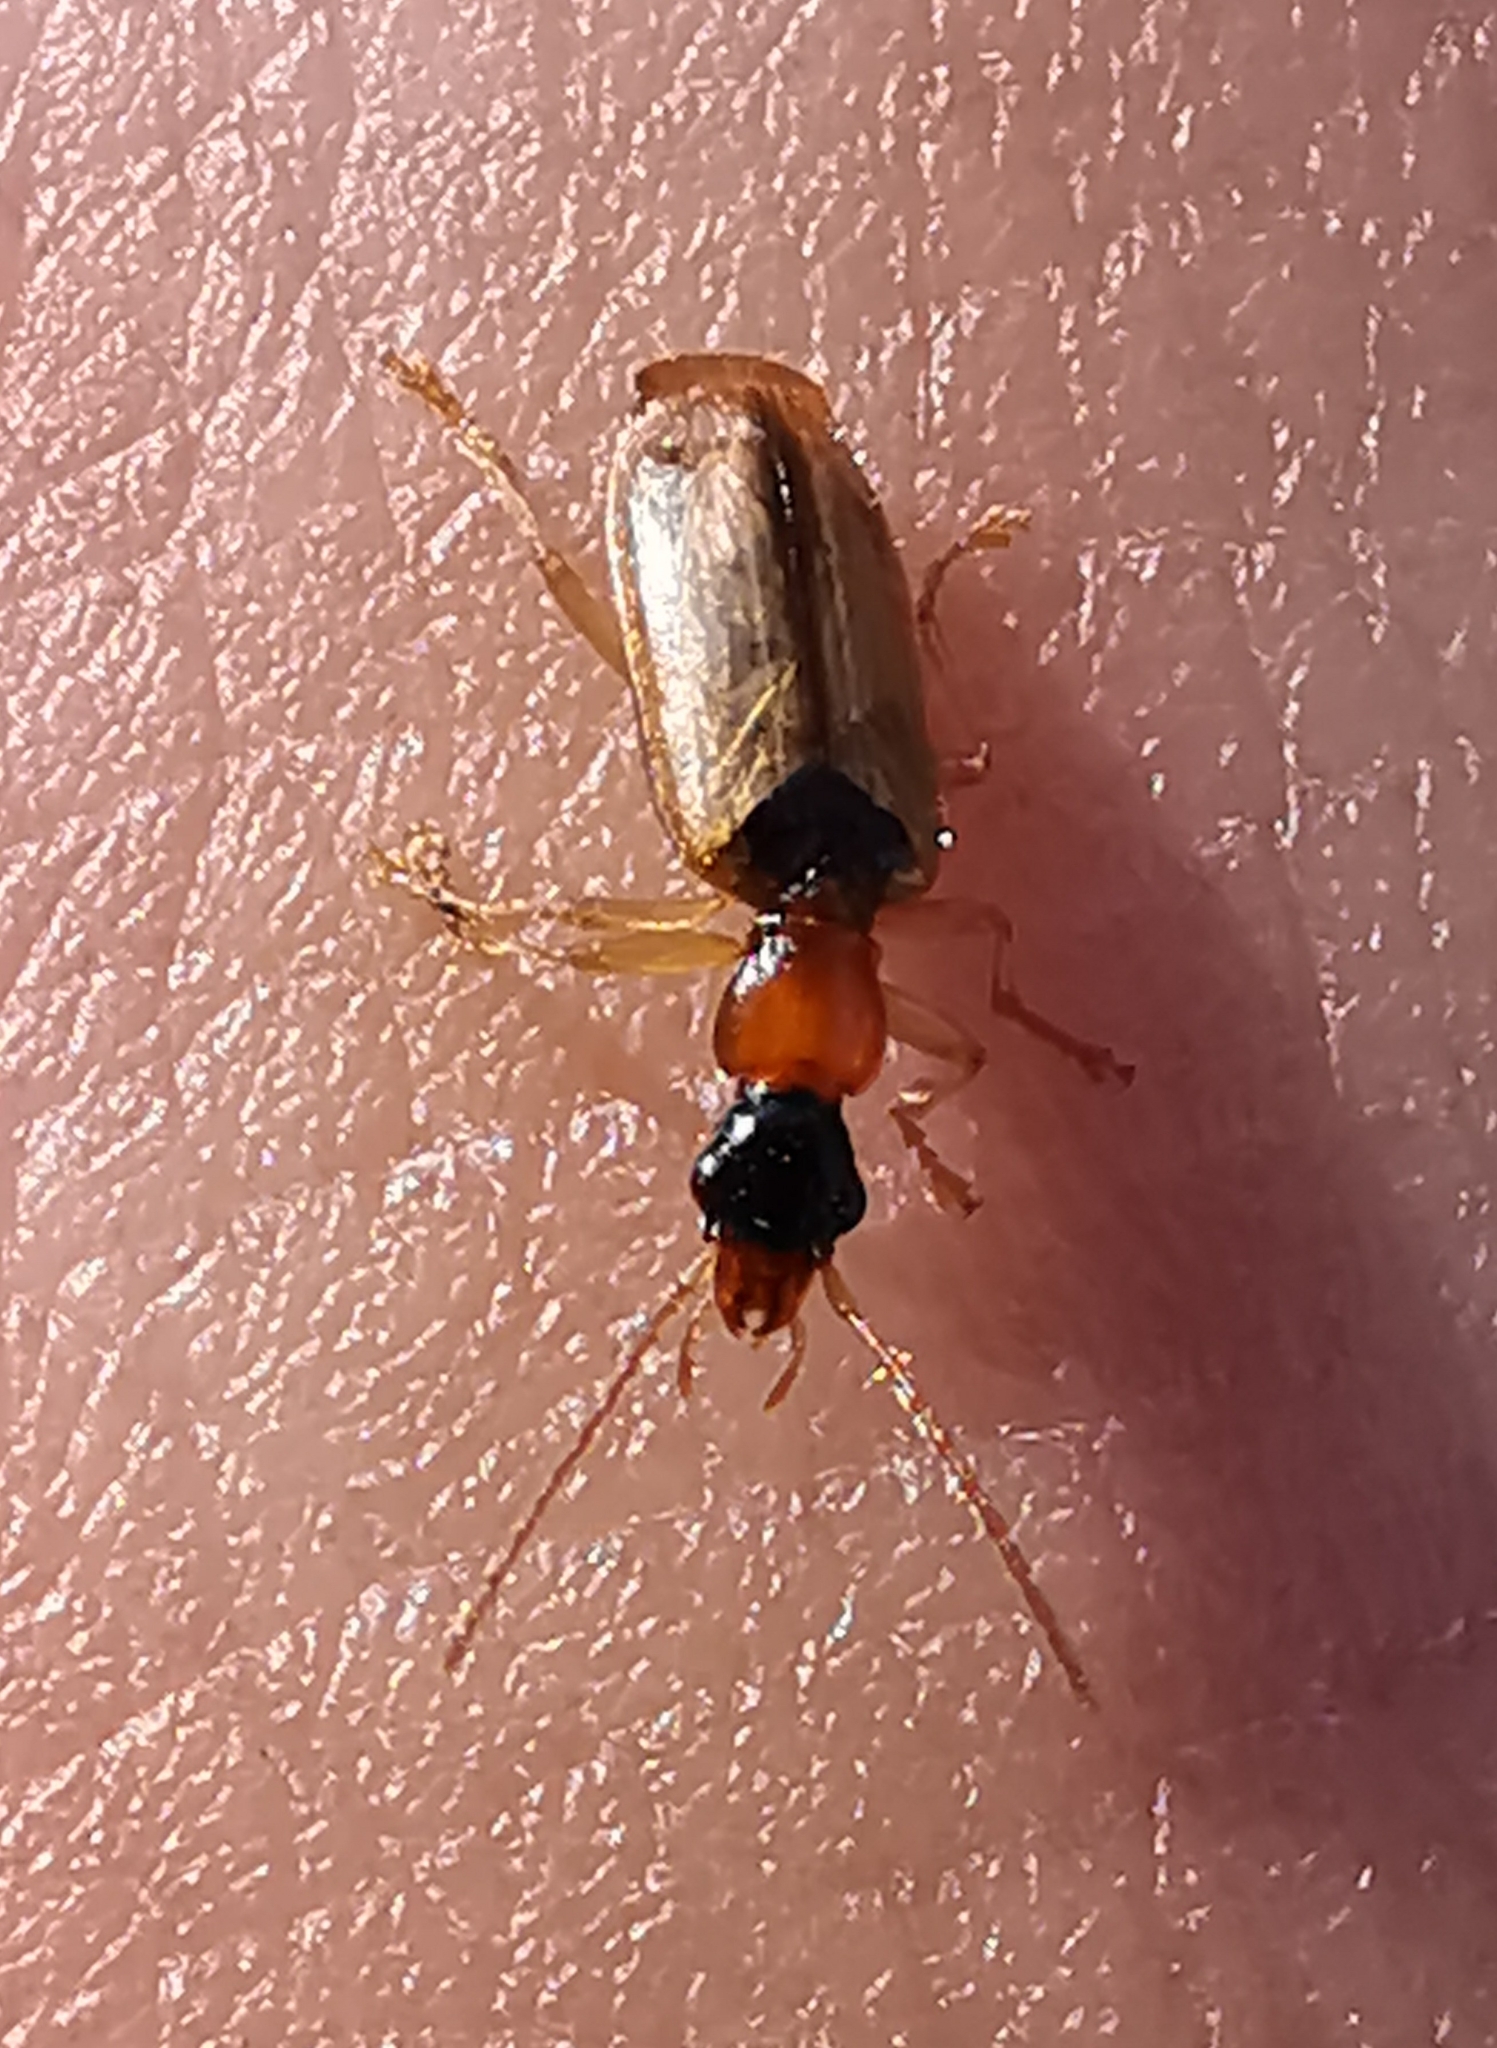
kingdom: Animalia
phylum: Arthropoda
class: Insecta
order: Coleoptera
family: Carabidae
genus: Demetrias
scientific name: Demetrias atricapillus
